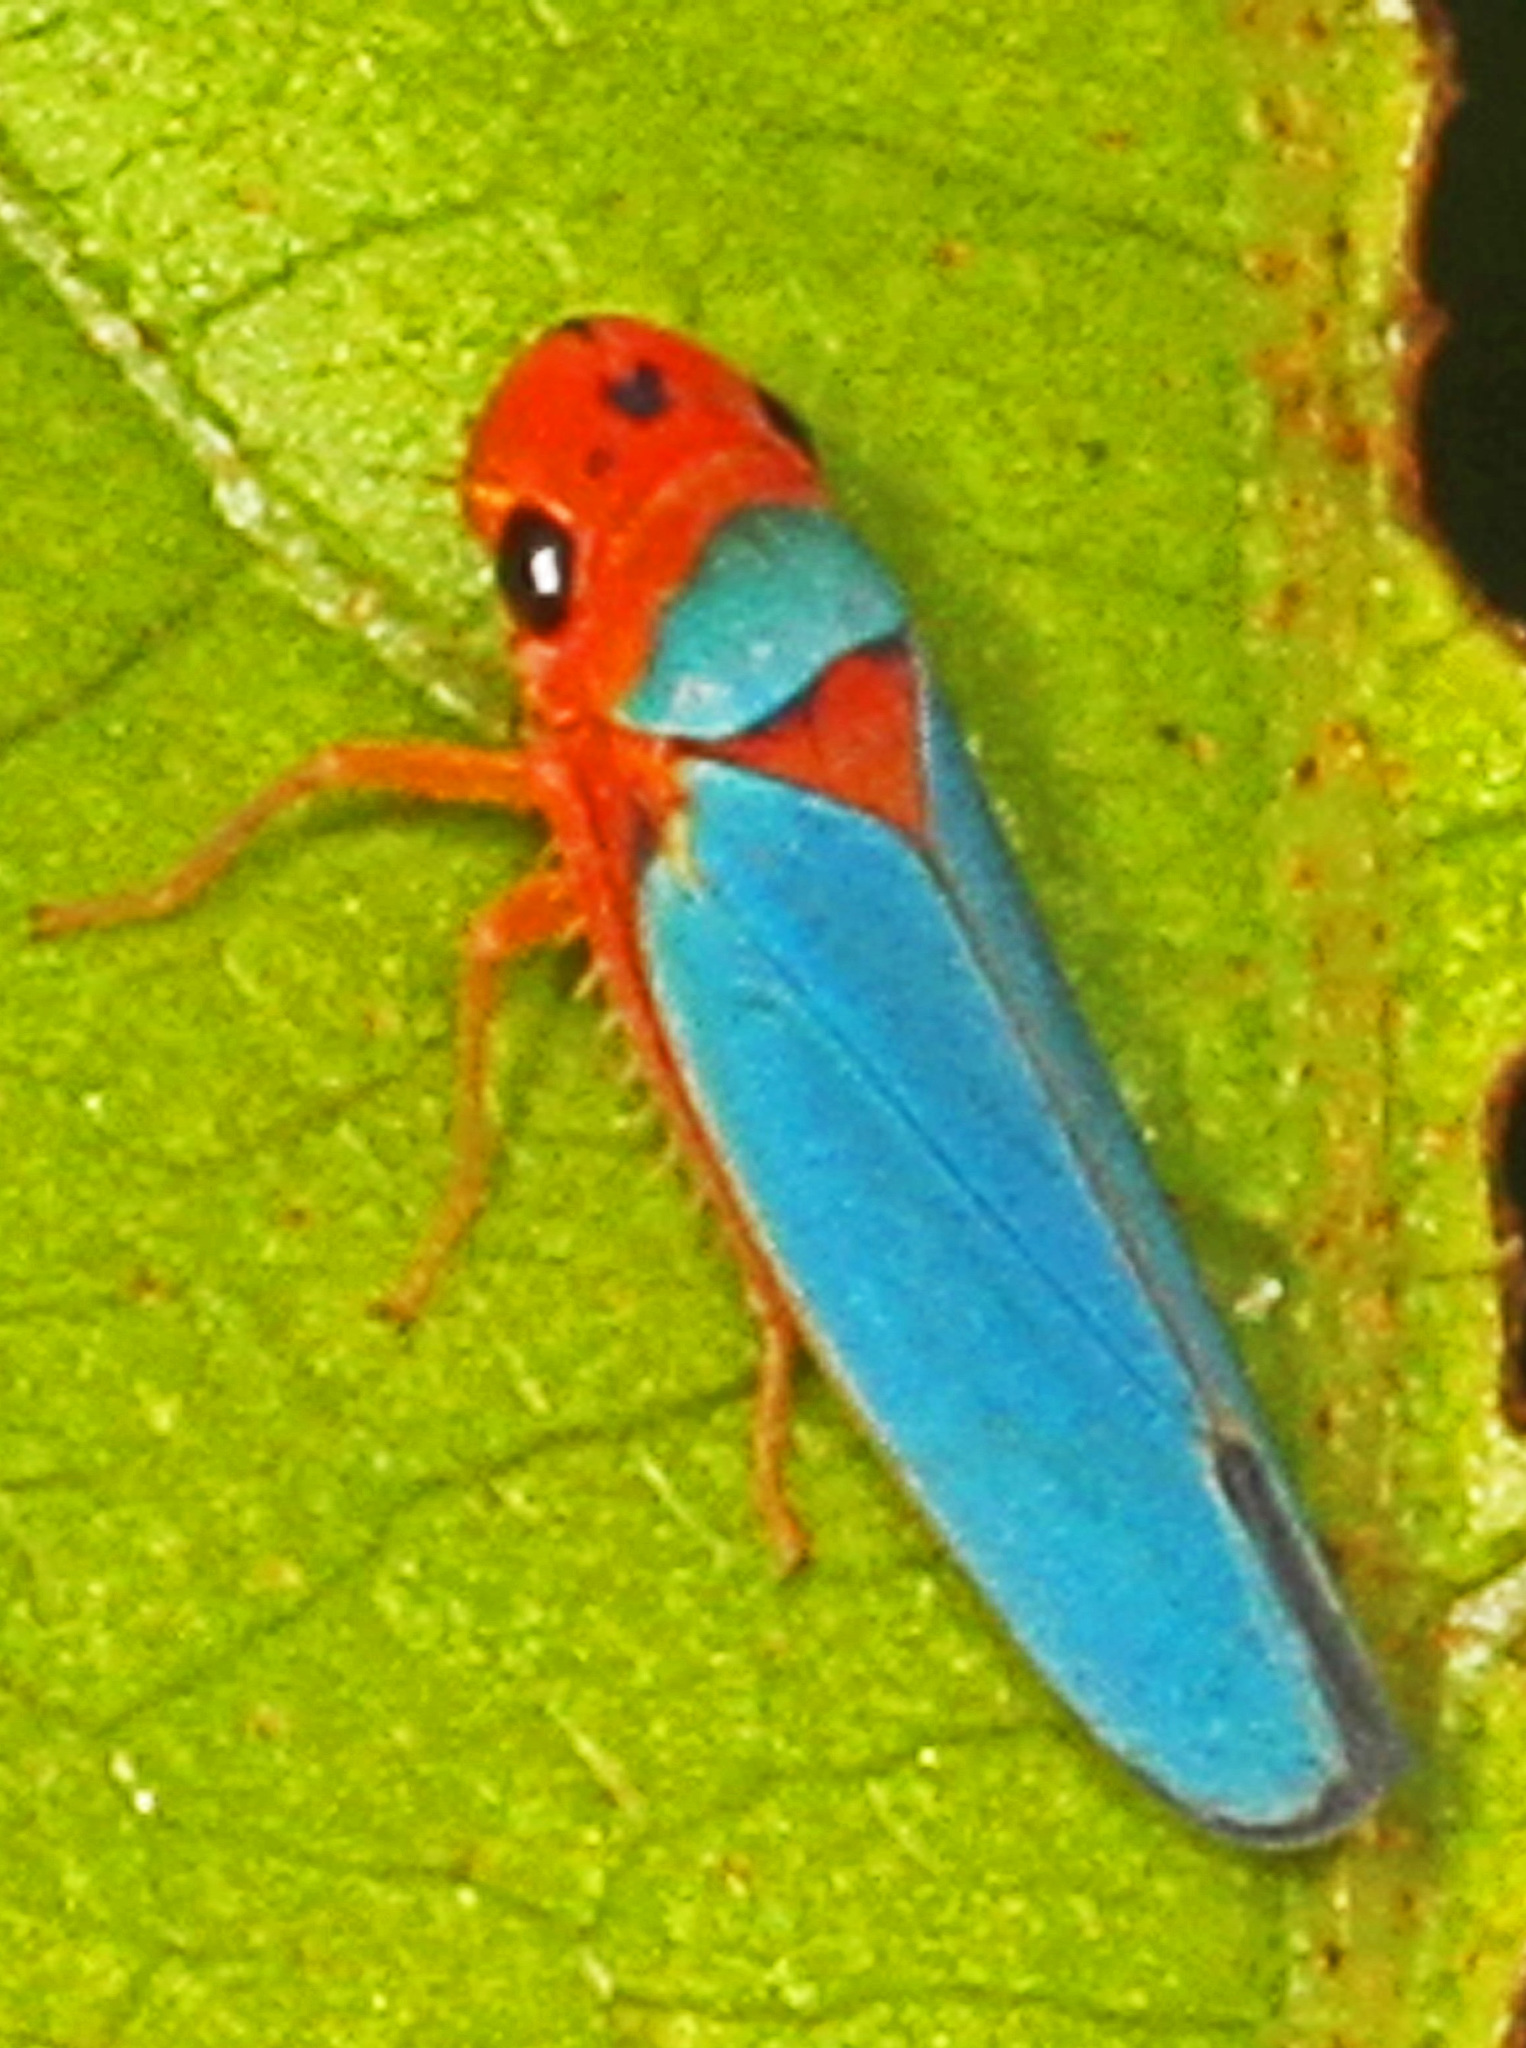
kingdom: Animalia
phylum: Arthropoda
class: Insecta
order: Hemiptera
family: Cicadellidae
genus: Macunolla
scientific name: Macunolla ventralis
